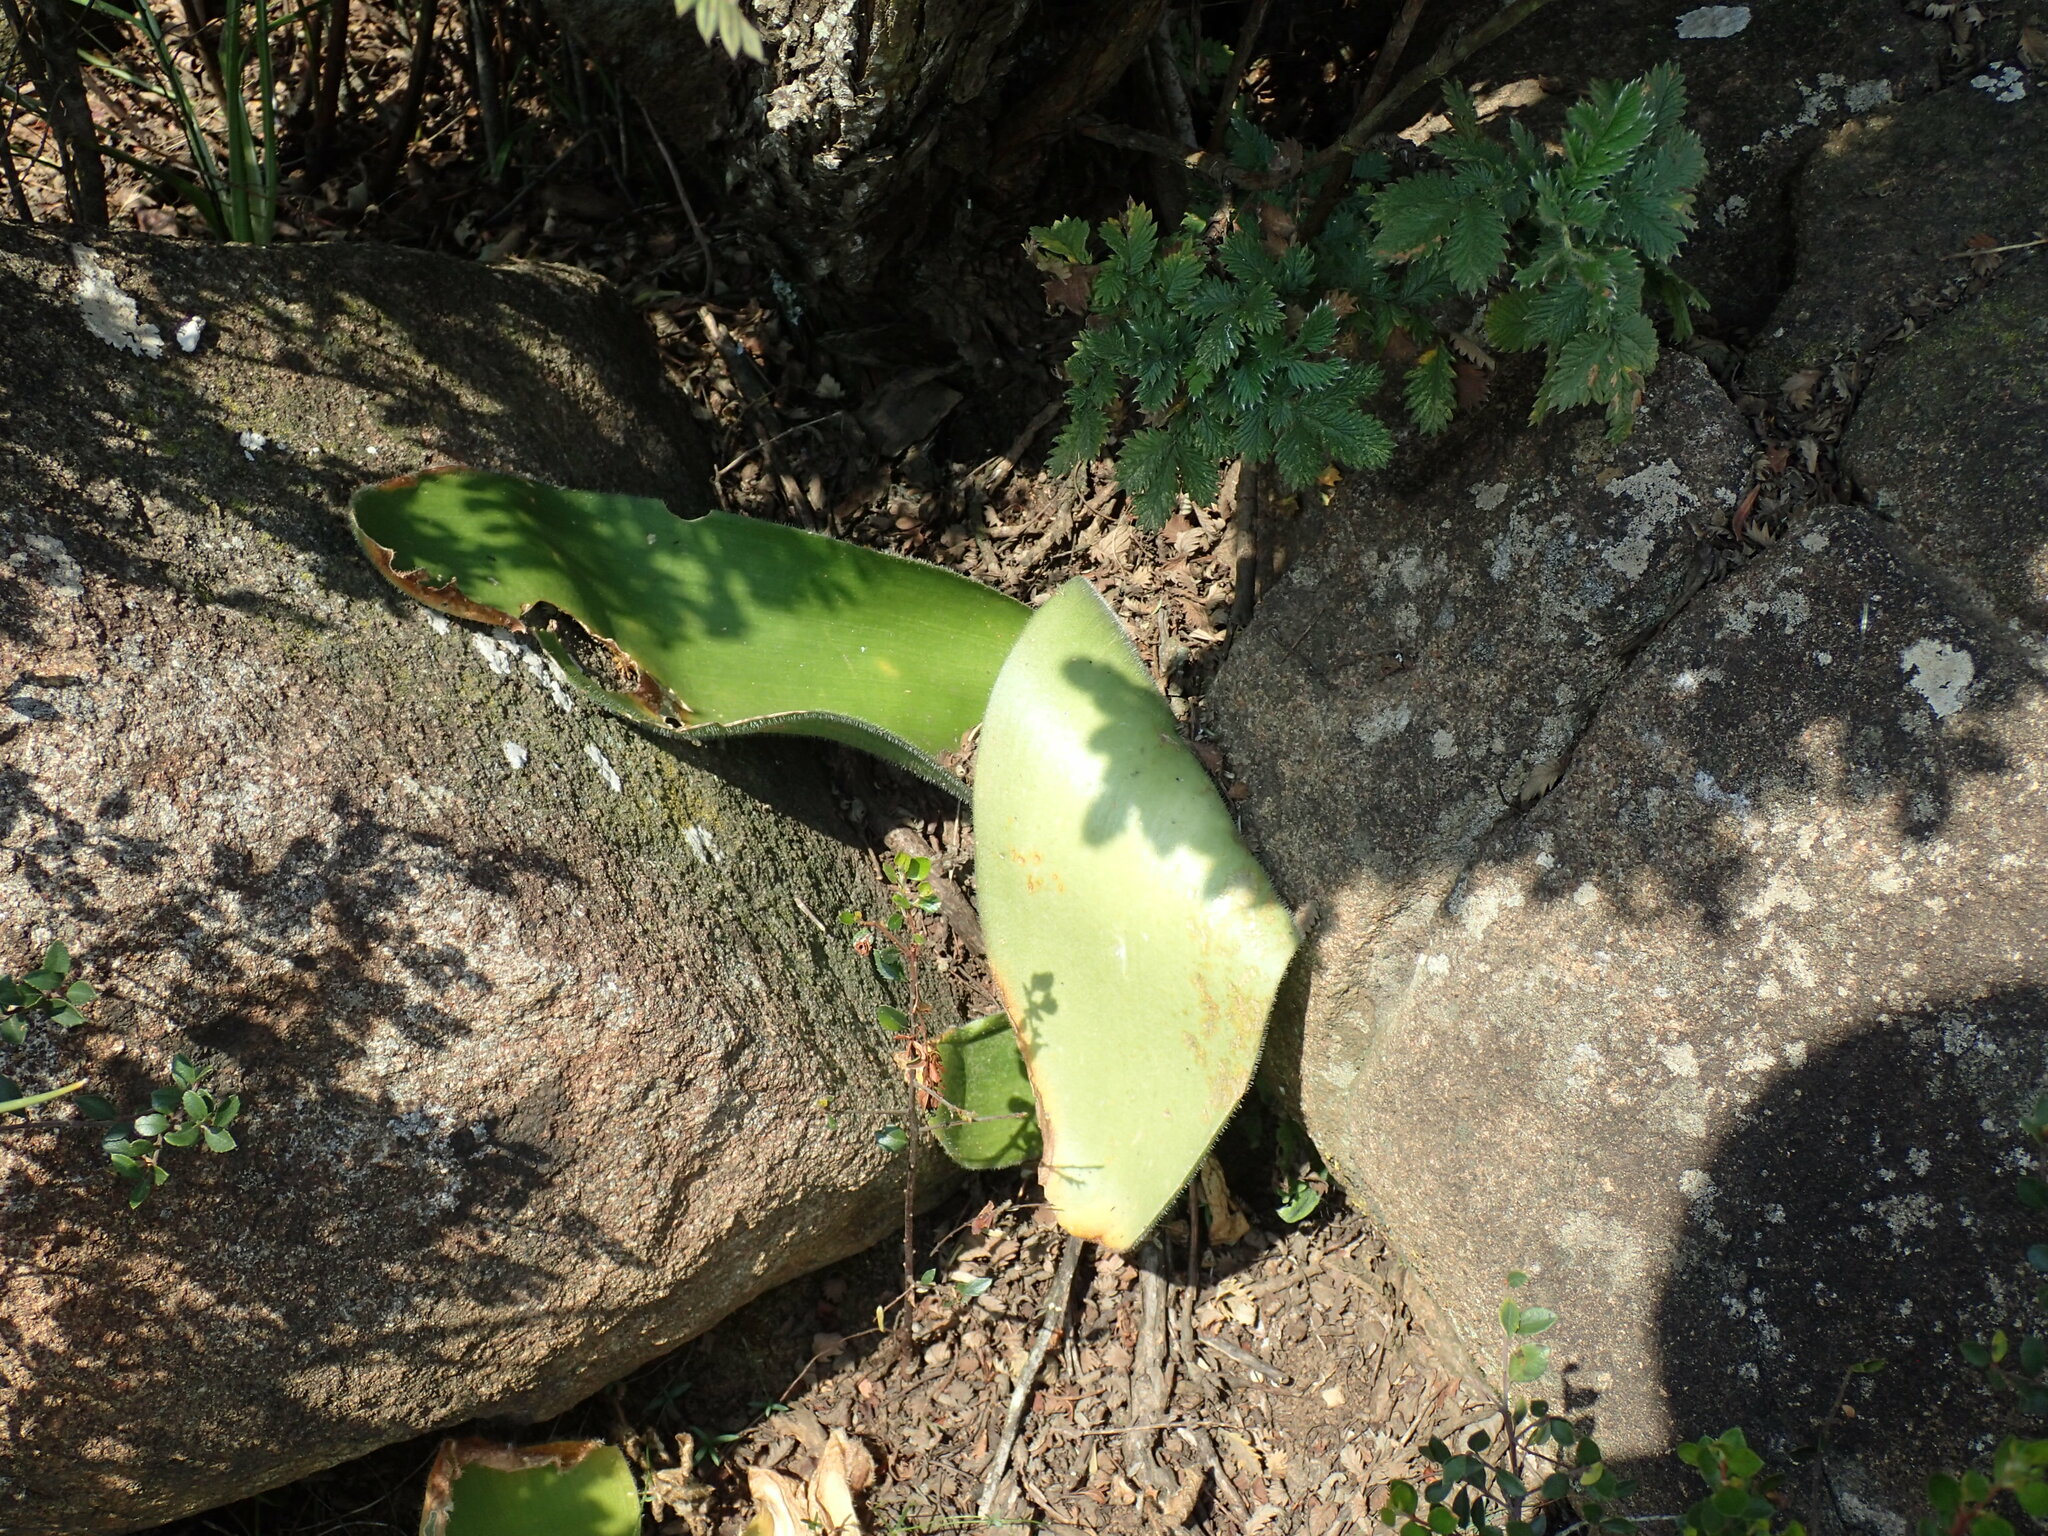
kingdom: Plantae
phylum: Tracheophyta
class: Liliopsida
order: Asparagales
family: Amaryllidaceae
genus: Haemanthus
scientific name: Haemanthus humilis
